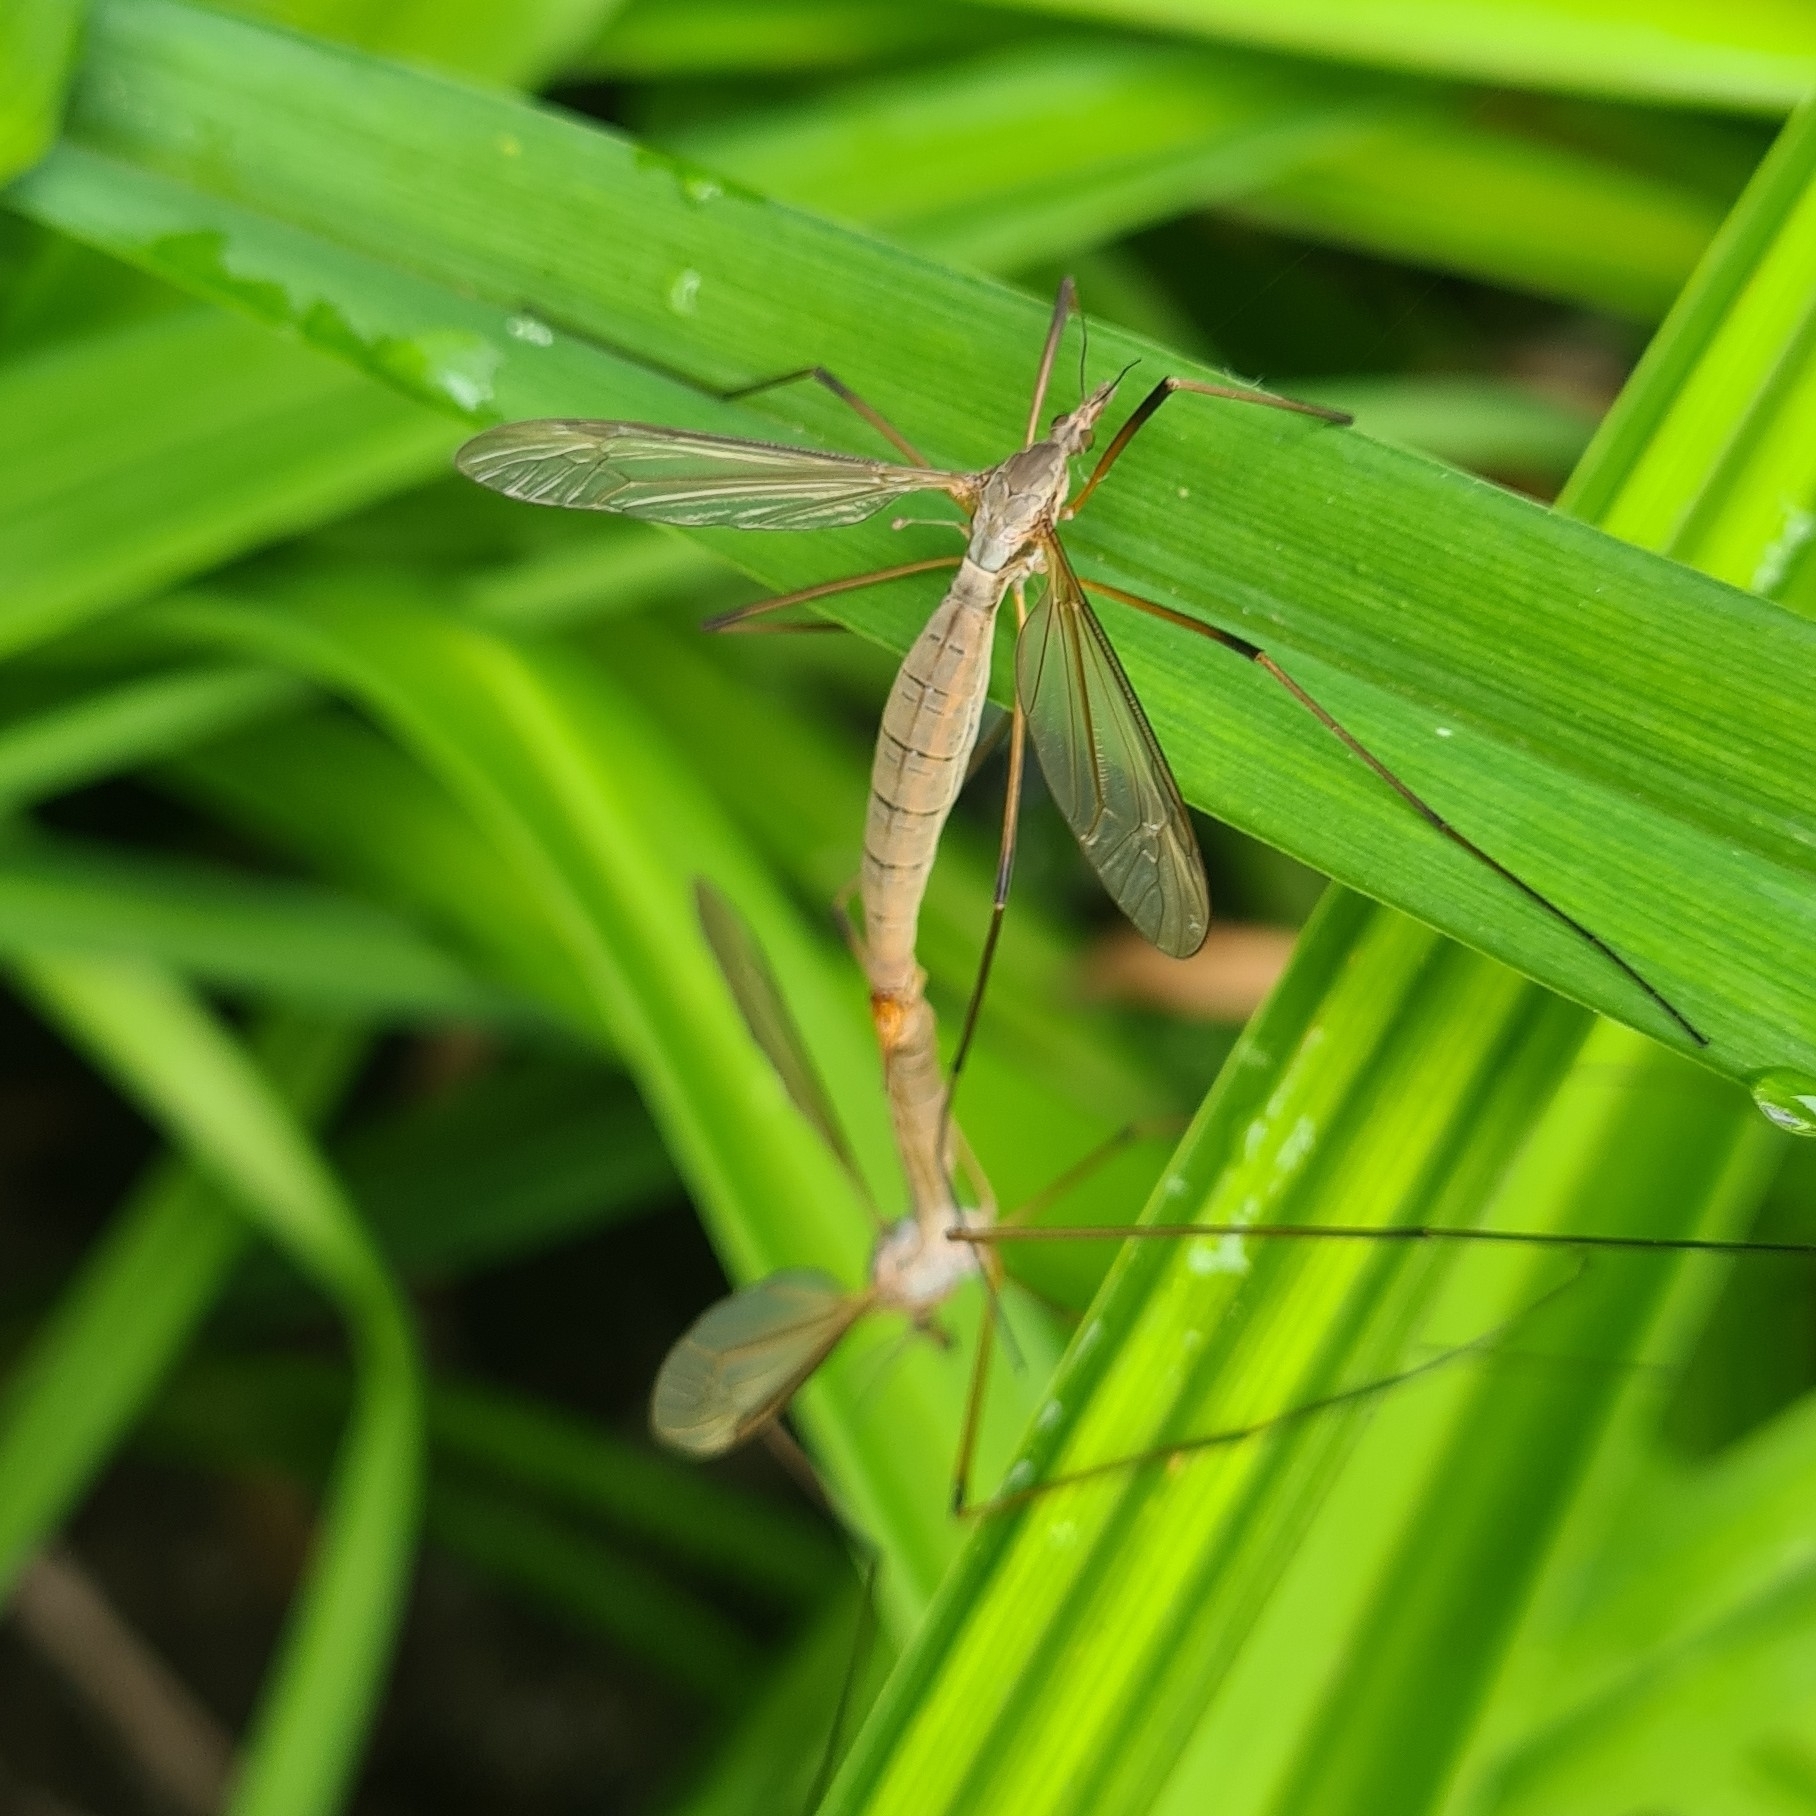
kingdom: Animalia
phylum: Arthropoda
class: Insecta
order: Diptera
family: Tipulidae
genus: Tipula
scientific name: Tipula paludosa
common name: European cranefly
